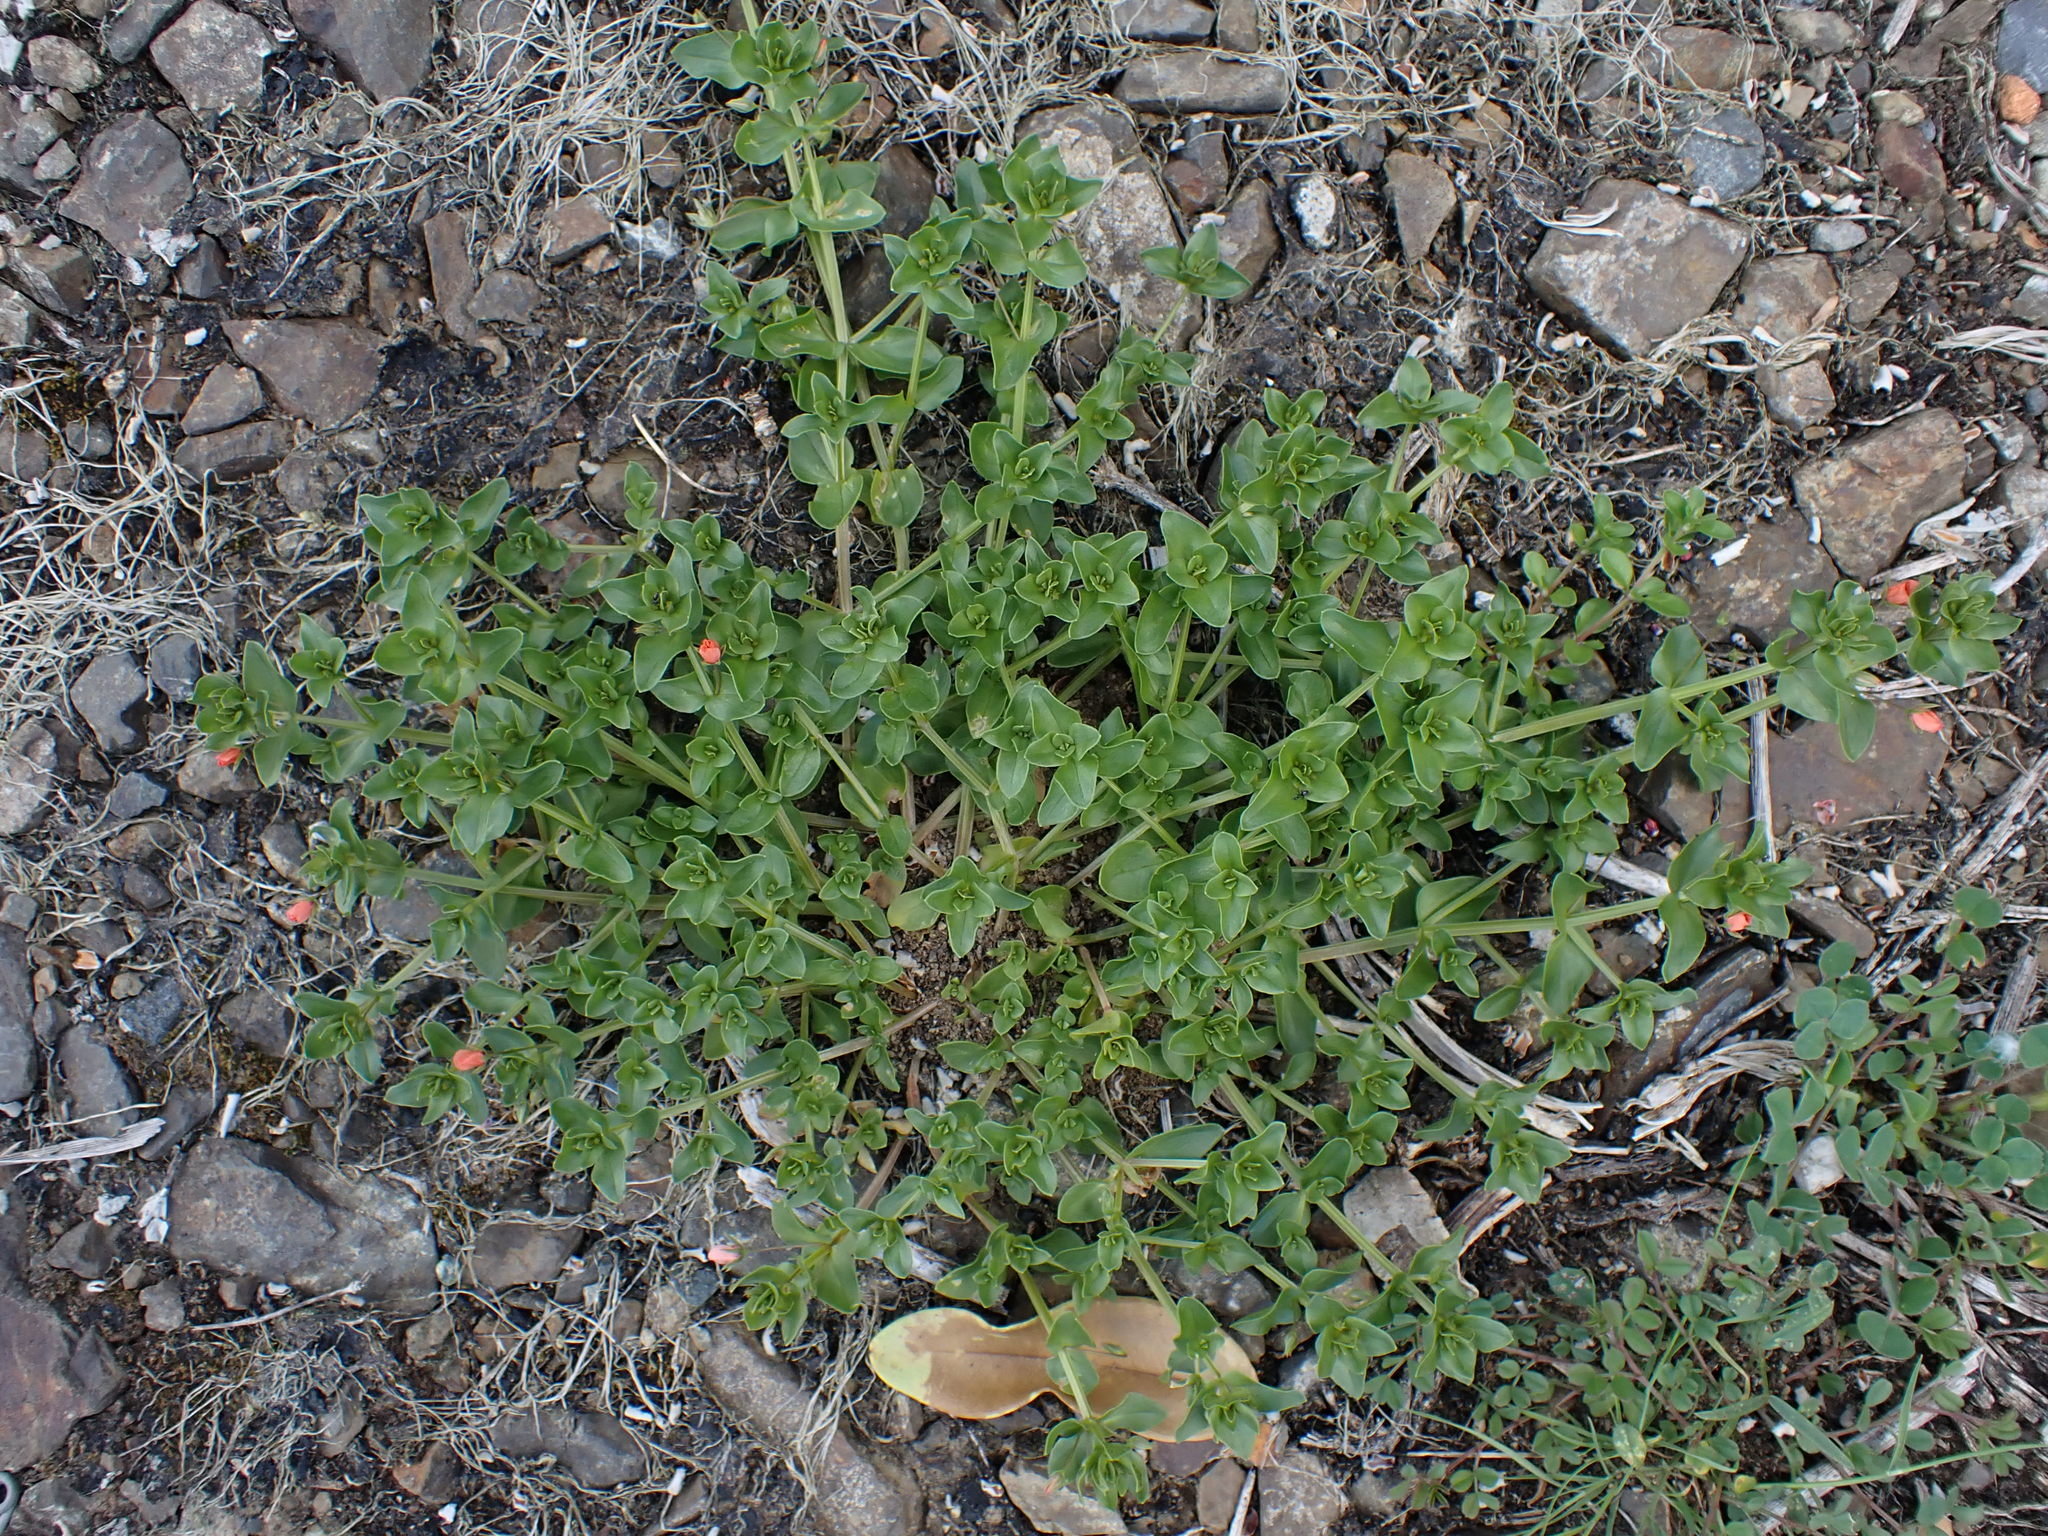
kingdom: Plantae
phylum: Tracheophyta
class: Magnoliopsida
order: Ericales
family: Primulaceae
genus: Lysimachia
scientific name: Lysimachia arvensis
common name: Scarlet pimpernel
